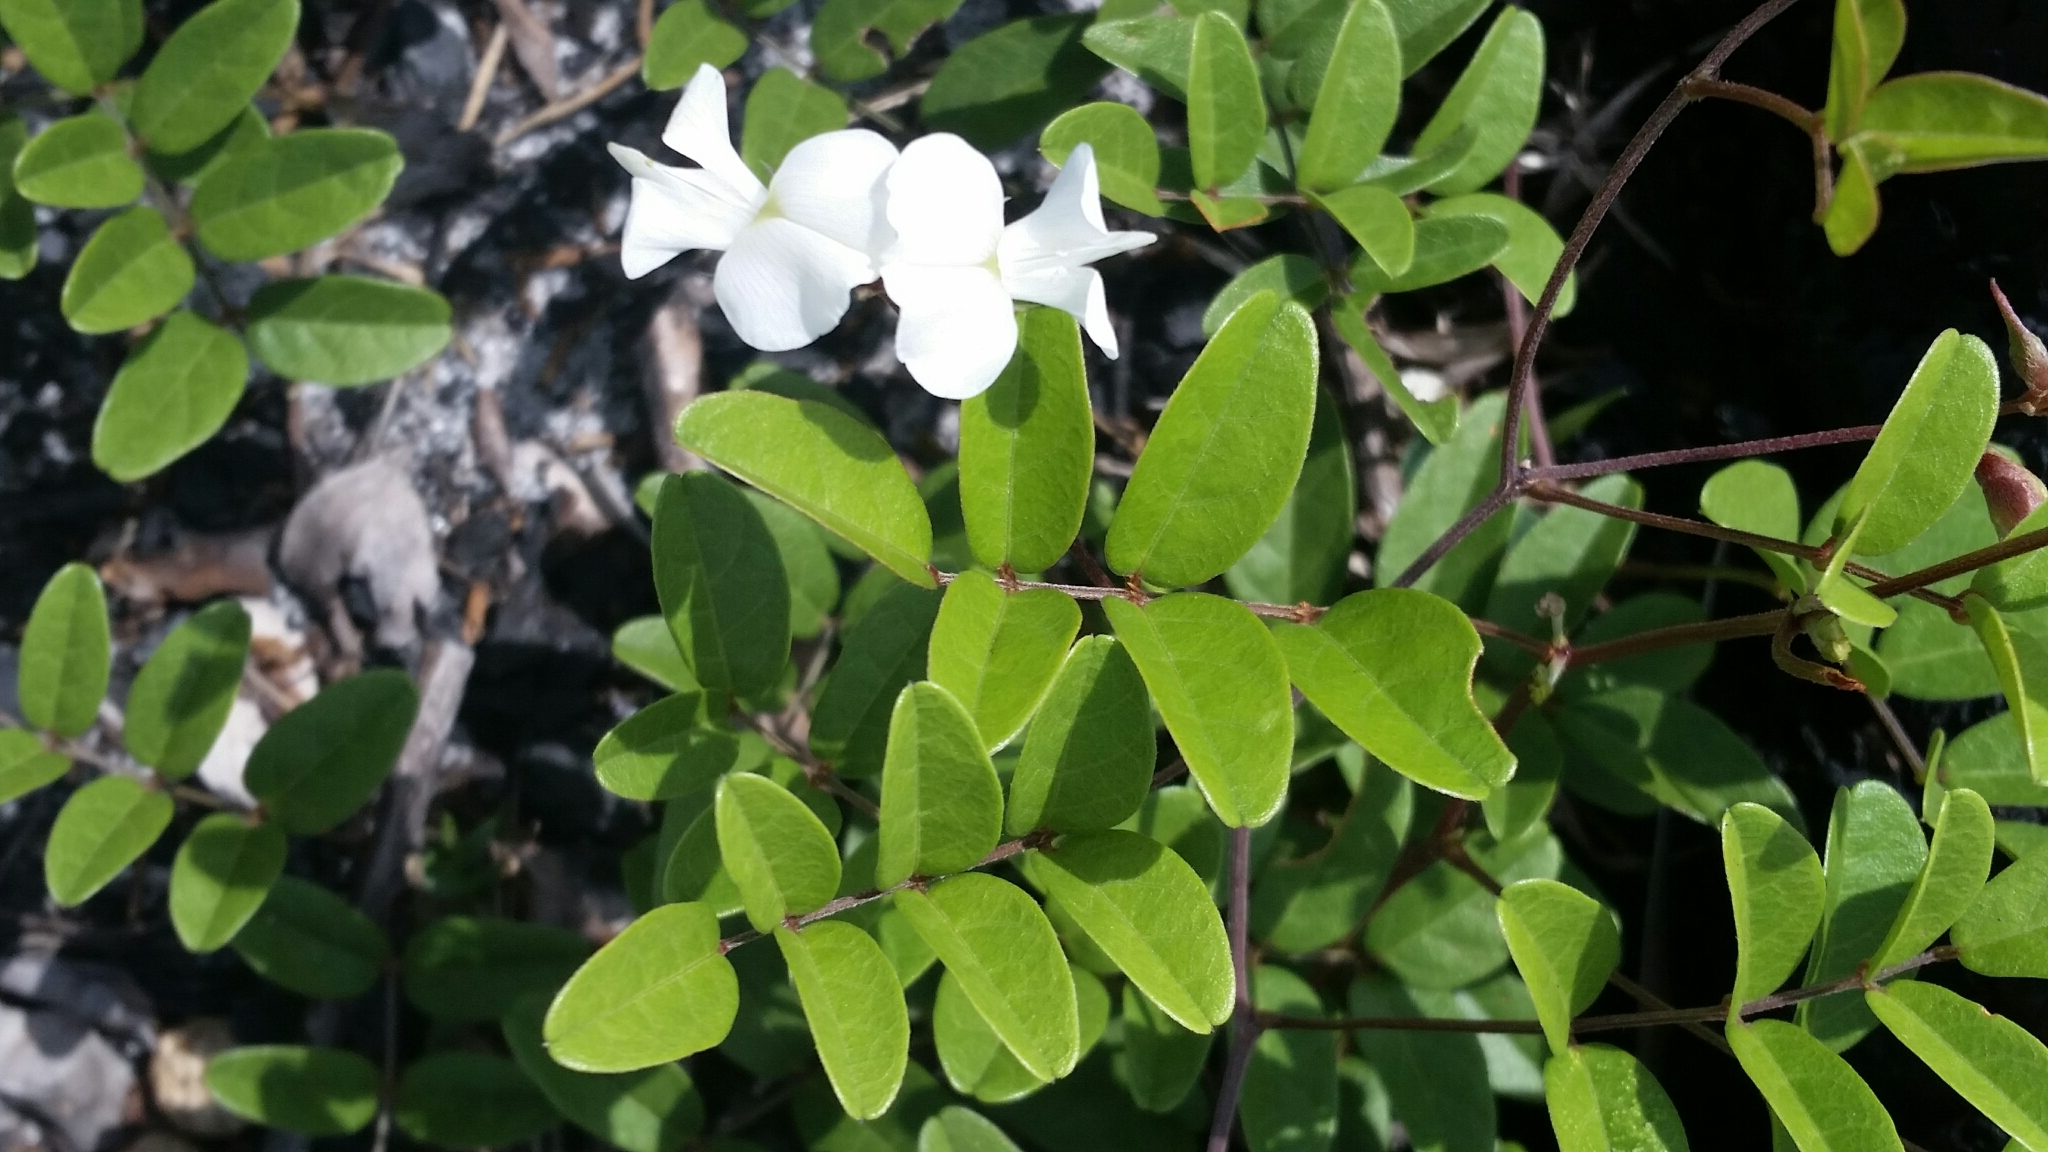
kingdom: Plantae
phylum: Tracheophyta
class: Magnoliopsida
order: Fabales
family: Fabaceae
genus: Galactia
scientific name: Galactia elliottii
